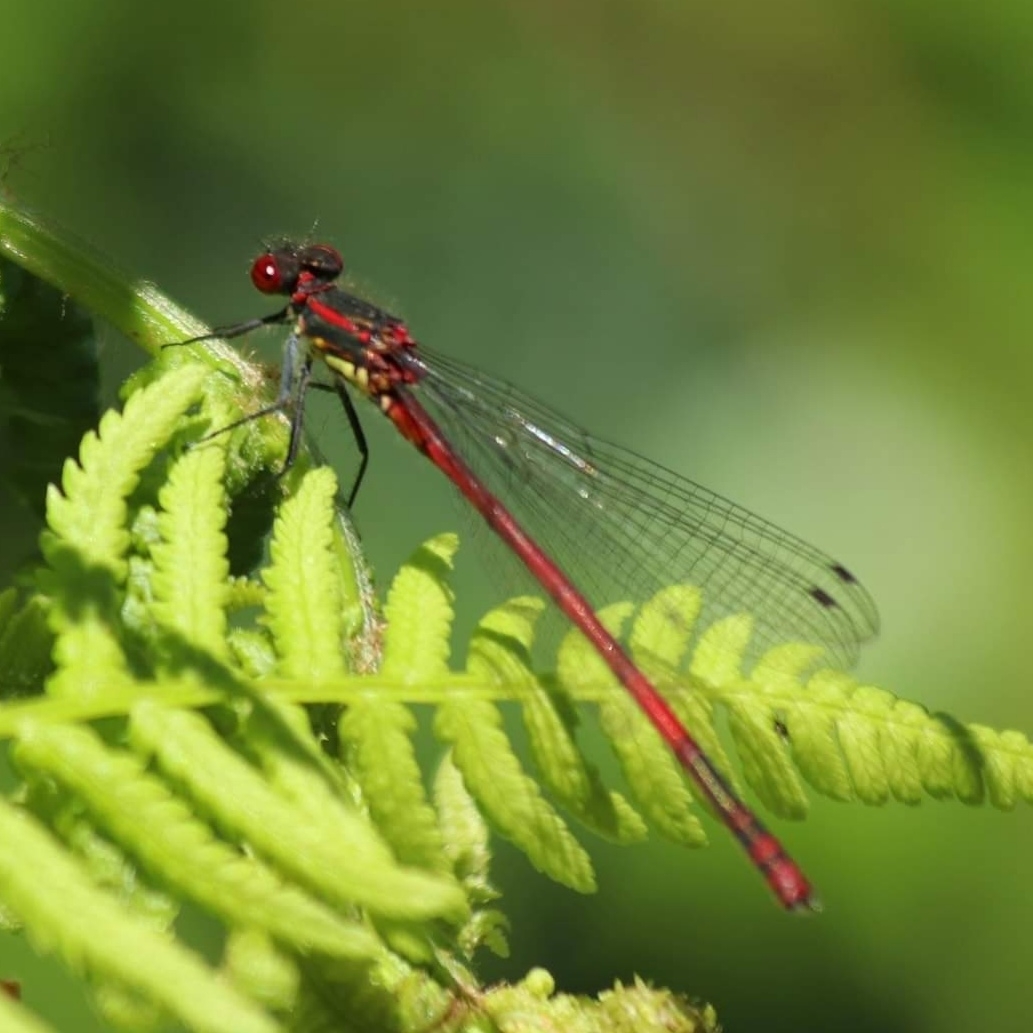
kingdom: Animalia
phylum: Arthropoda
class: Insecta
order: Odonata
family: Coenagrionidae
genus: Pyrrhosoma
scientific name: Pyrrhosoma nymphula
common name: Large red damsel
